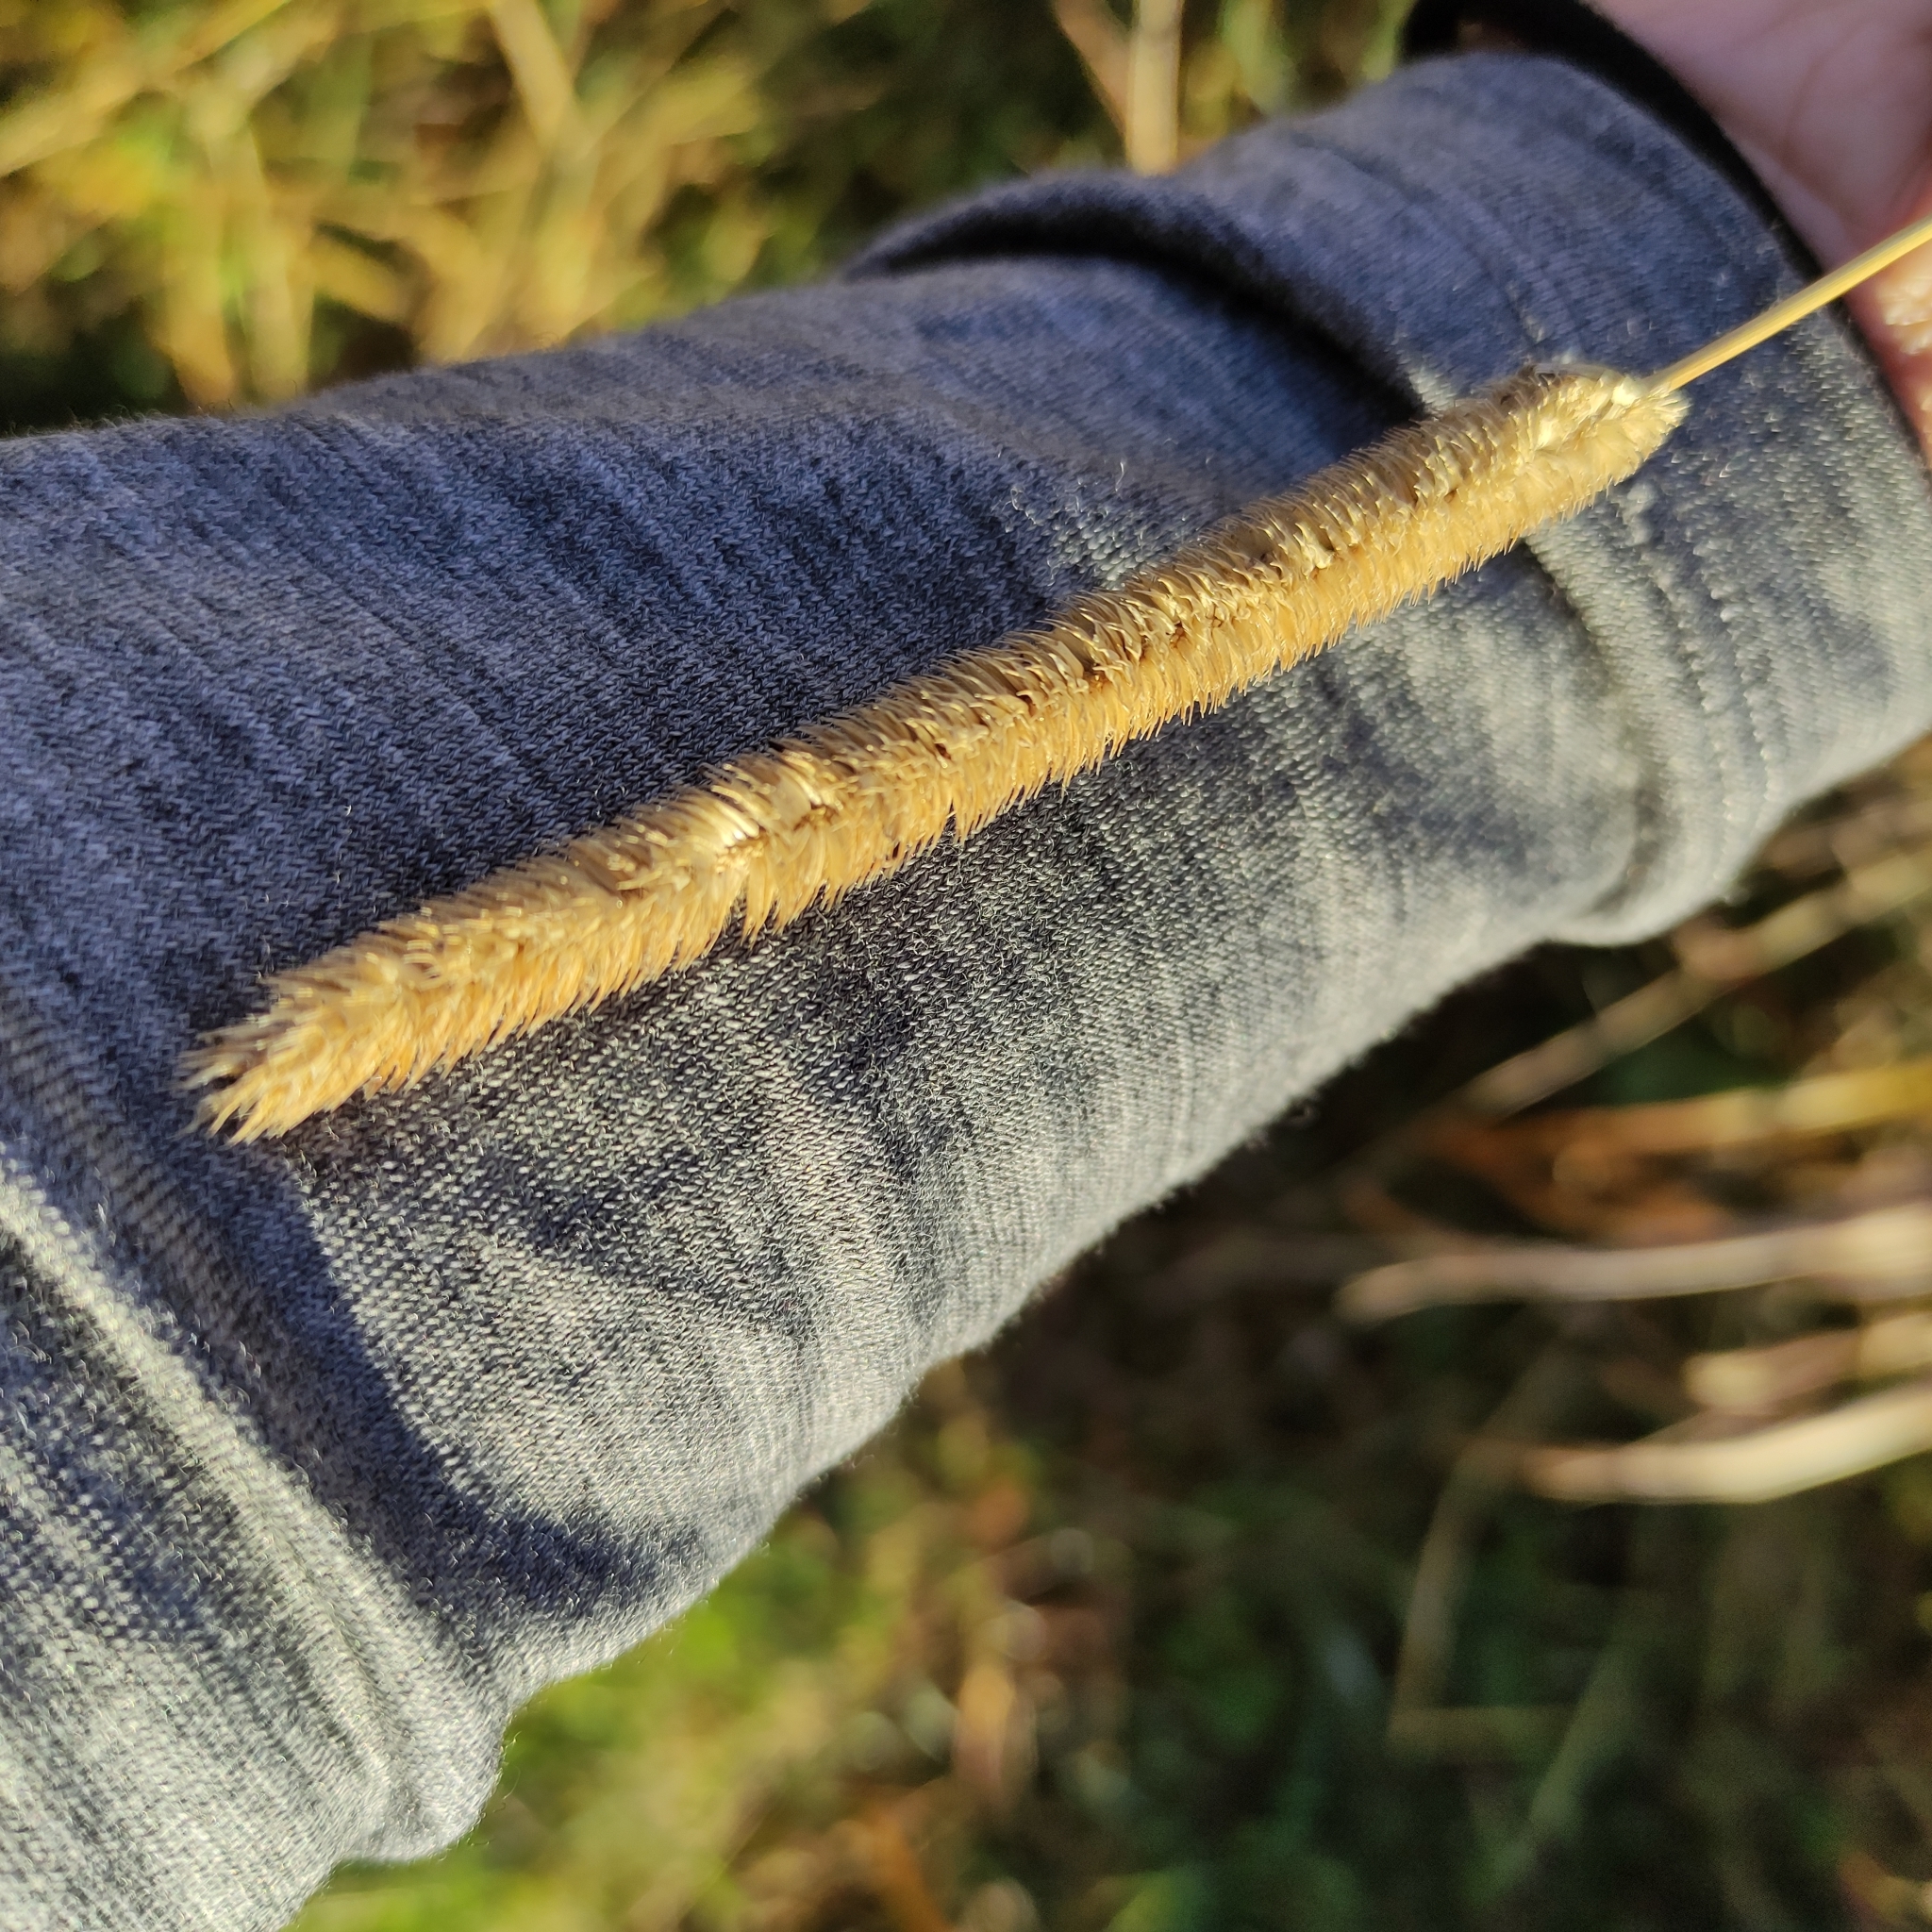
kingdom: Plantae
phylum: Tracheophyta
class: Liliopsida
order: Poales
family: Poaceae
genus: Phleum
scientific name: Phleum pratense
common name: Timothy grass
